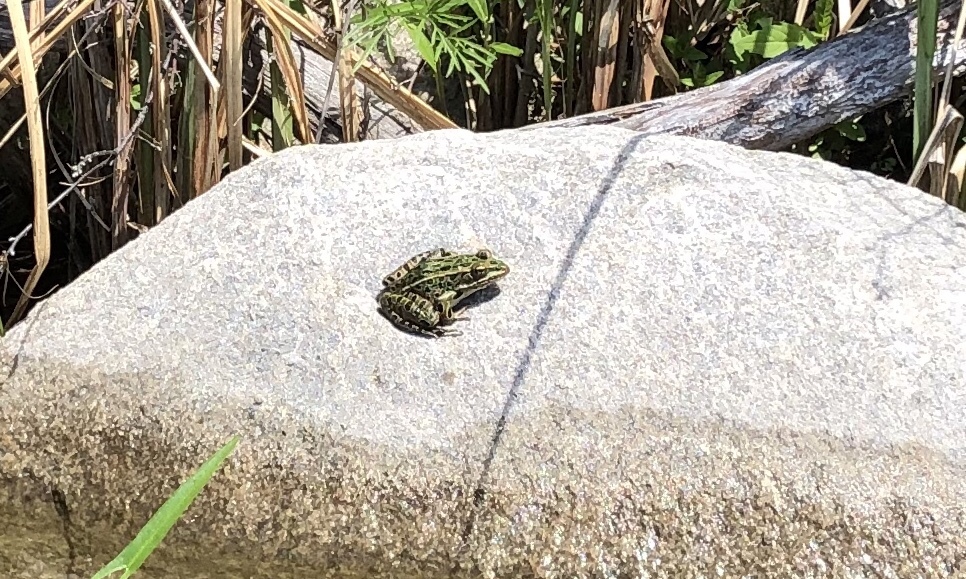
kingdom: Animalia
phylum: Chordata
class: Amphibia
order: Anura
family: Ranidae
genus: Lithobates
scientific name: Lithobates pipiens
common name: Northern leopard frog
